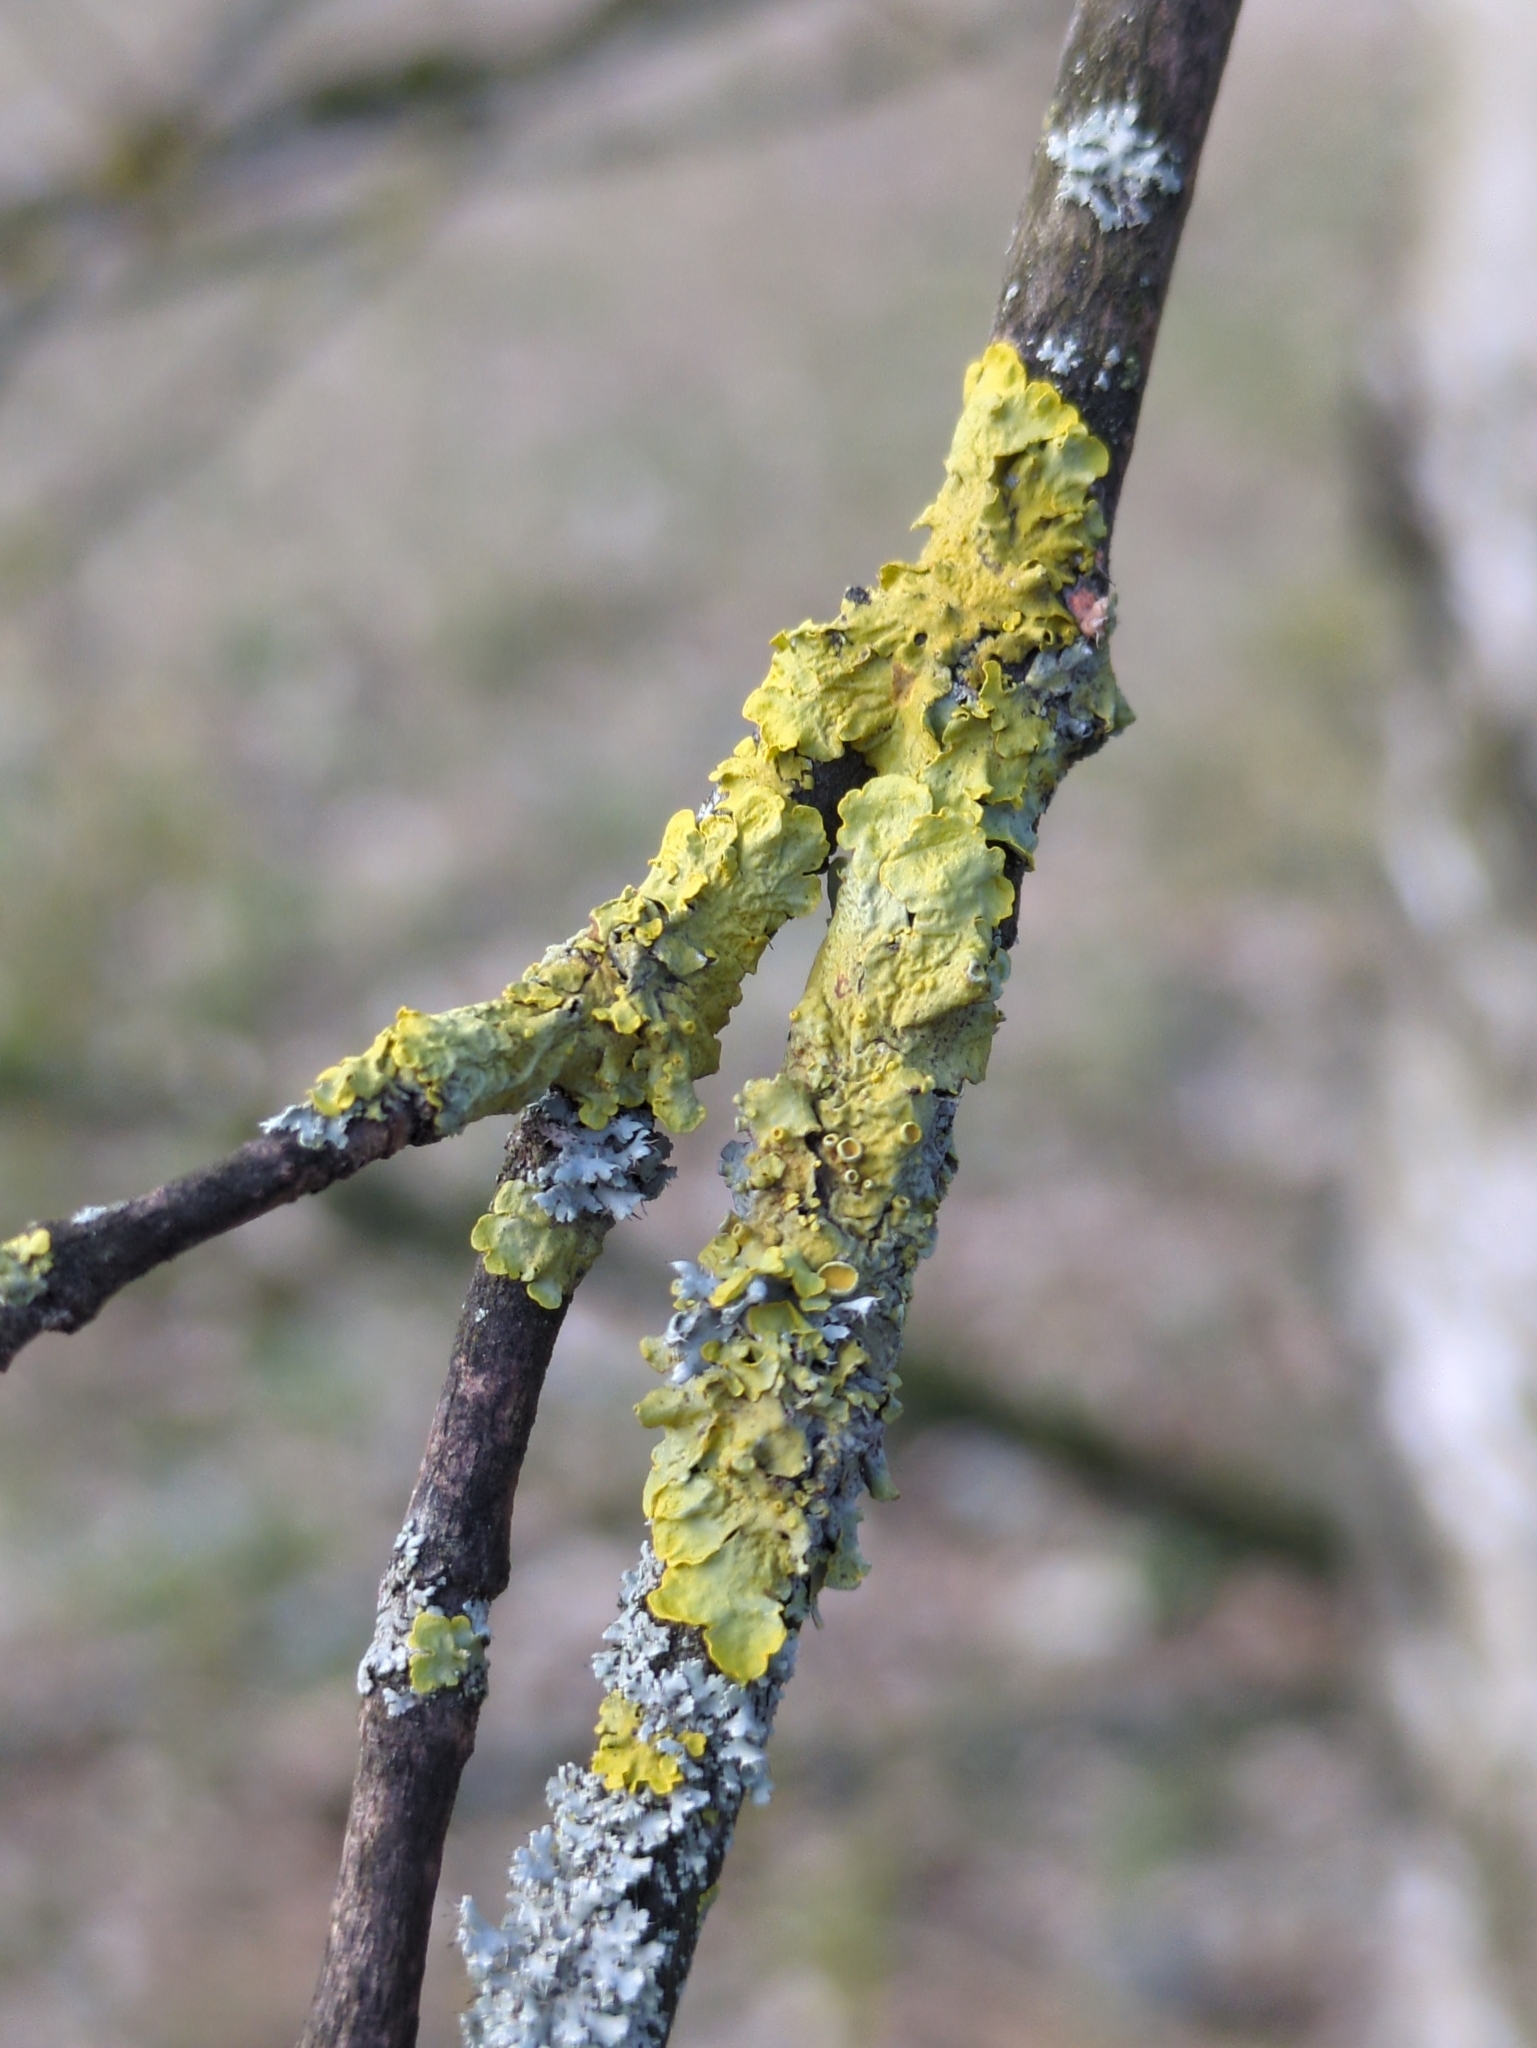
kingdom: Fungi
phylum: Ascomycota
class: Lecanoromycetes
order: Teloschistales
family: Teloschistaceae
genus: Xanthoria
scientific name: Xanthoria parietina
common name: Common orange lichen
